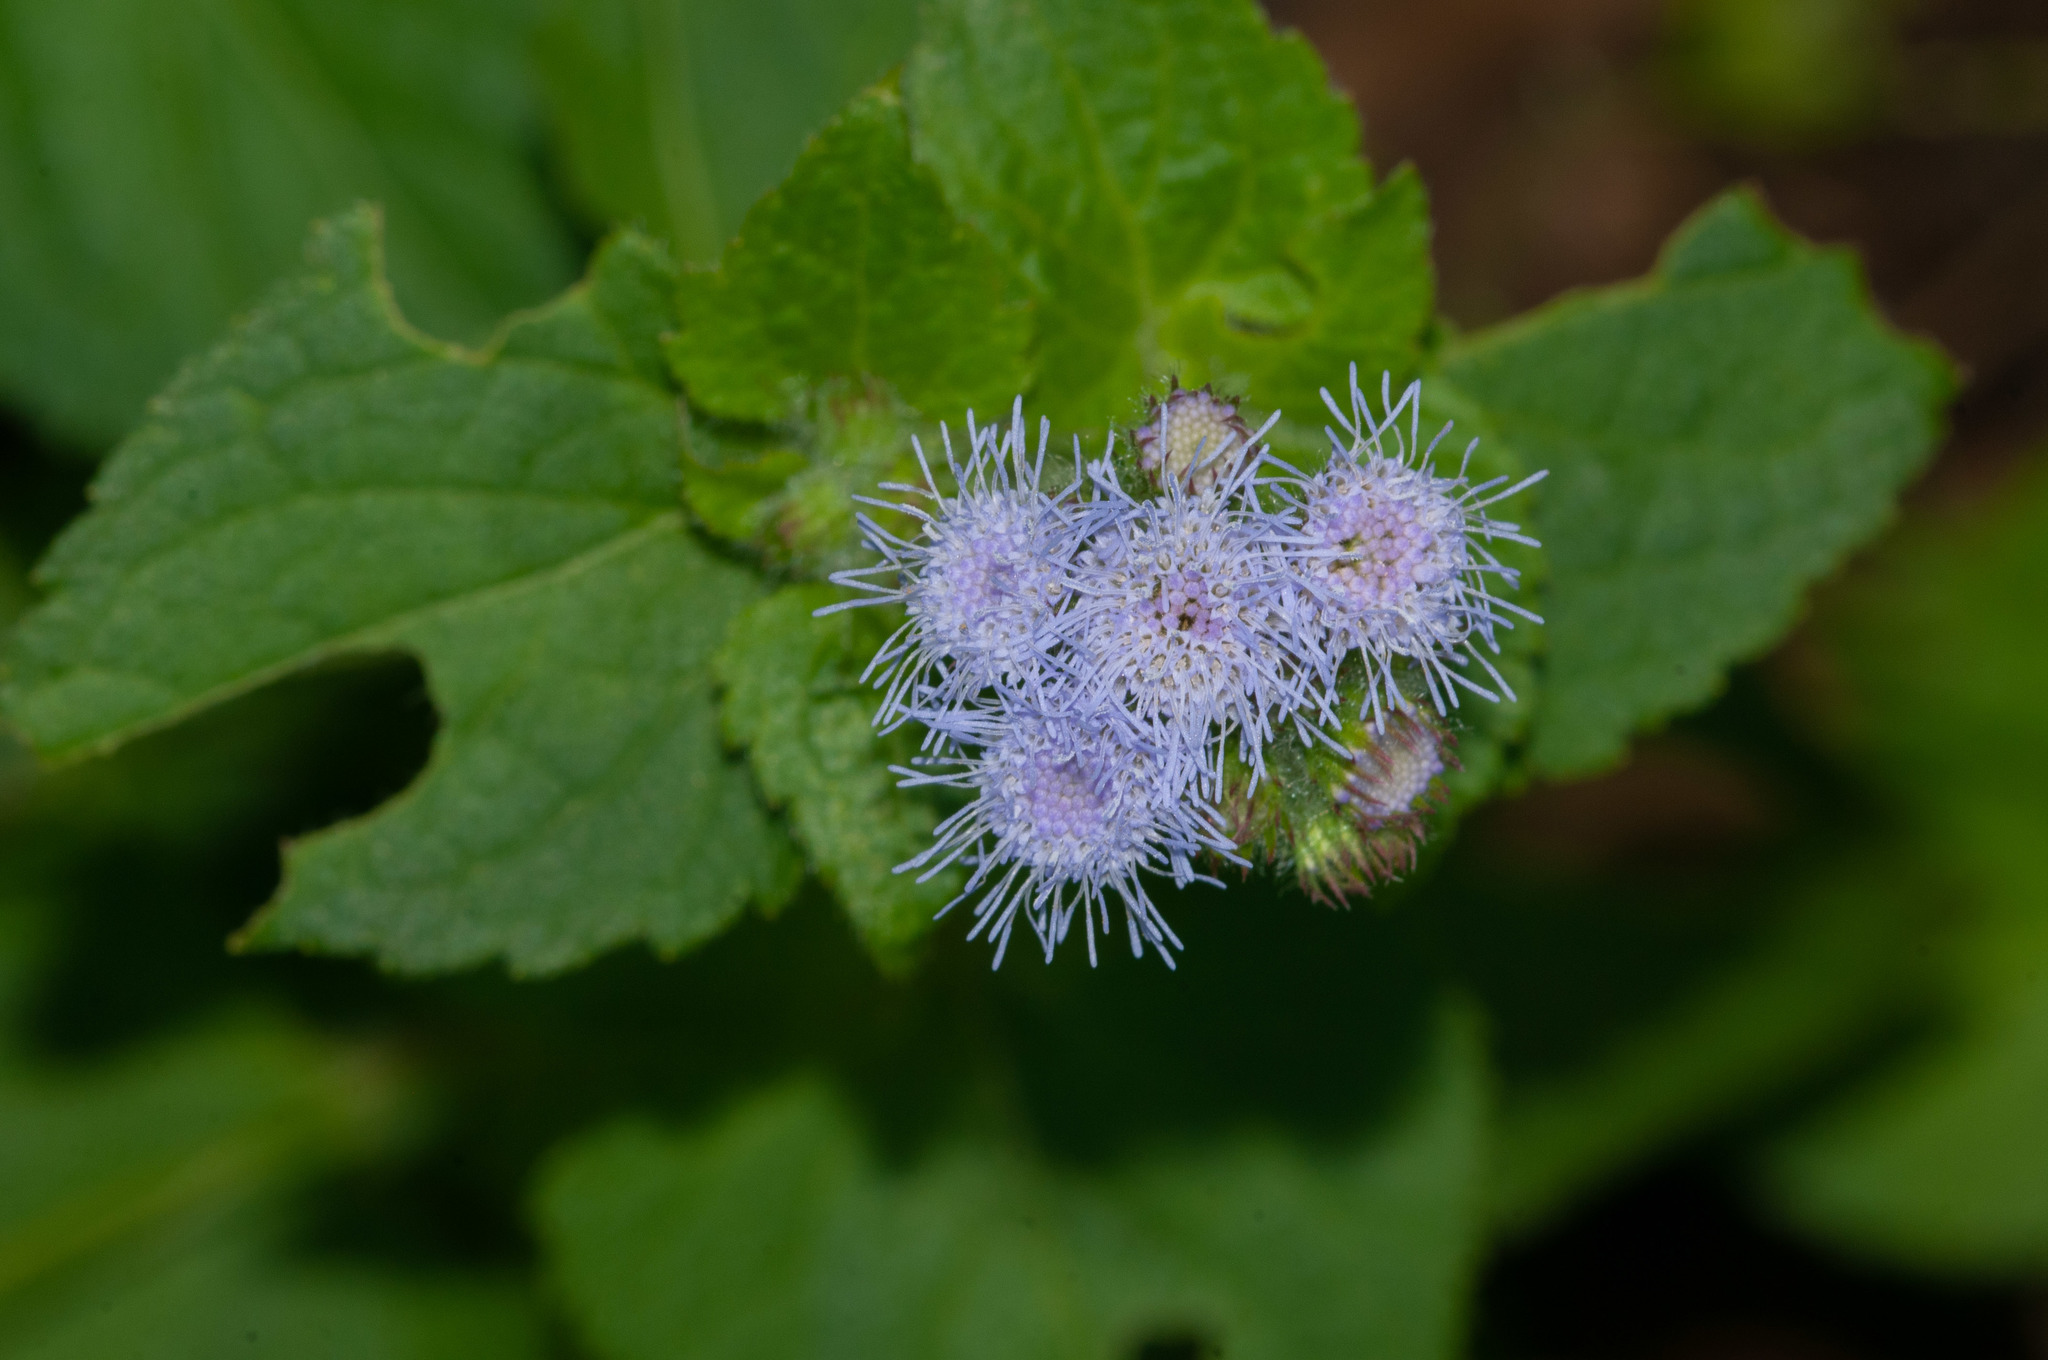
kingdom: Plantae
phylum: Tracheophyta
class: Magnoliopsida
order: Asterales
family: Asteraceae
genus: Ageratum
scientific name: Ageratum houstonianum
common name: Bluemink
